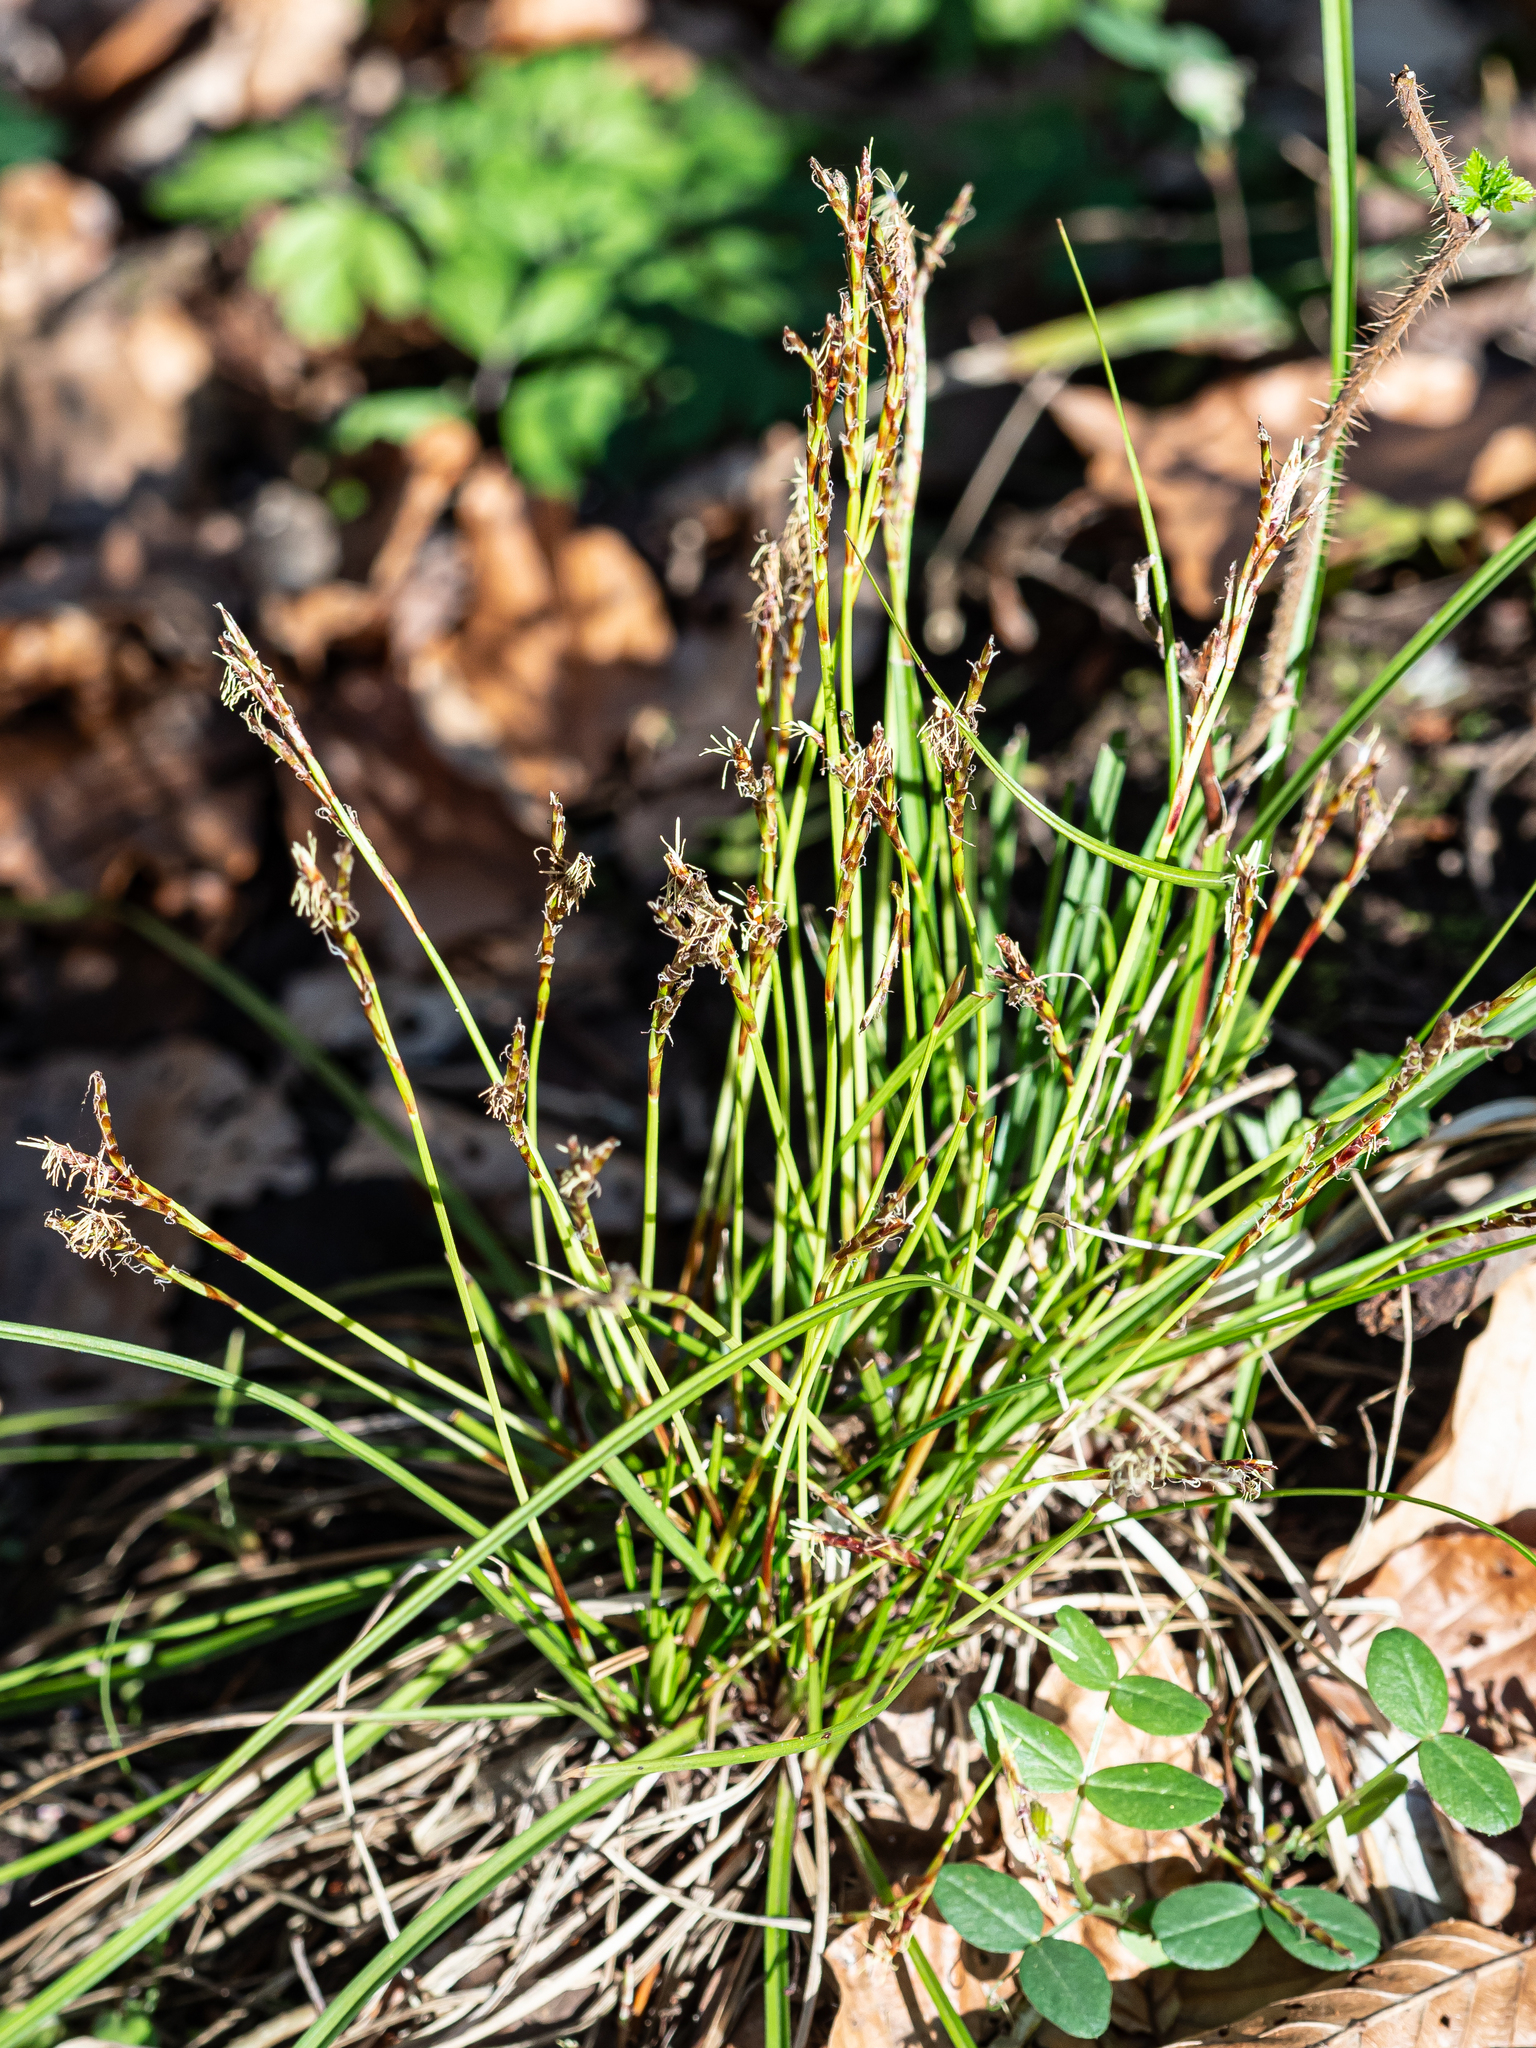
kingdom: Plantae
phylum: Tracheophyta
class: Liliopsida
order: Poales
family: Cyperaceae
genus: Carex
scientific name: Carex digitata
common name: Fingered sedge
